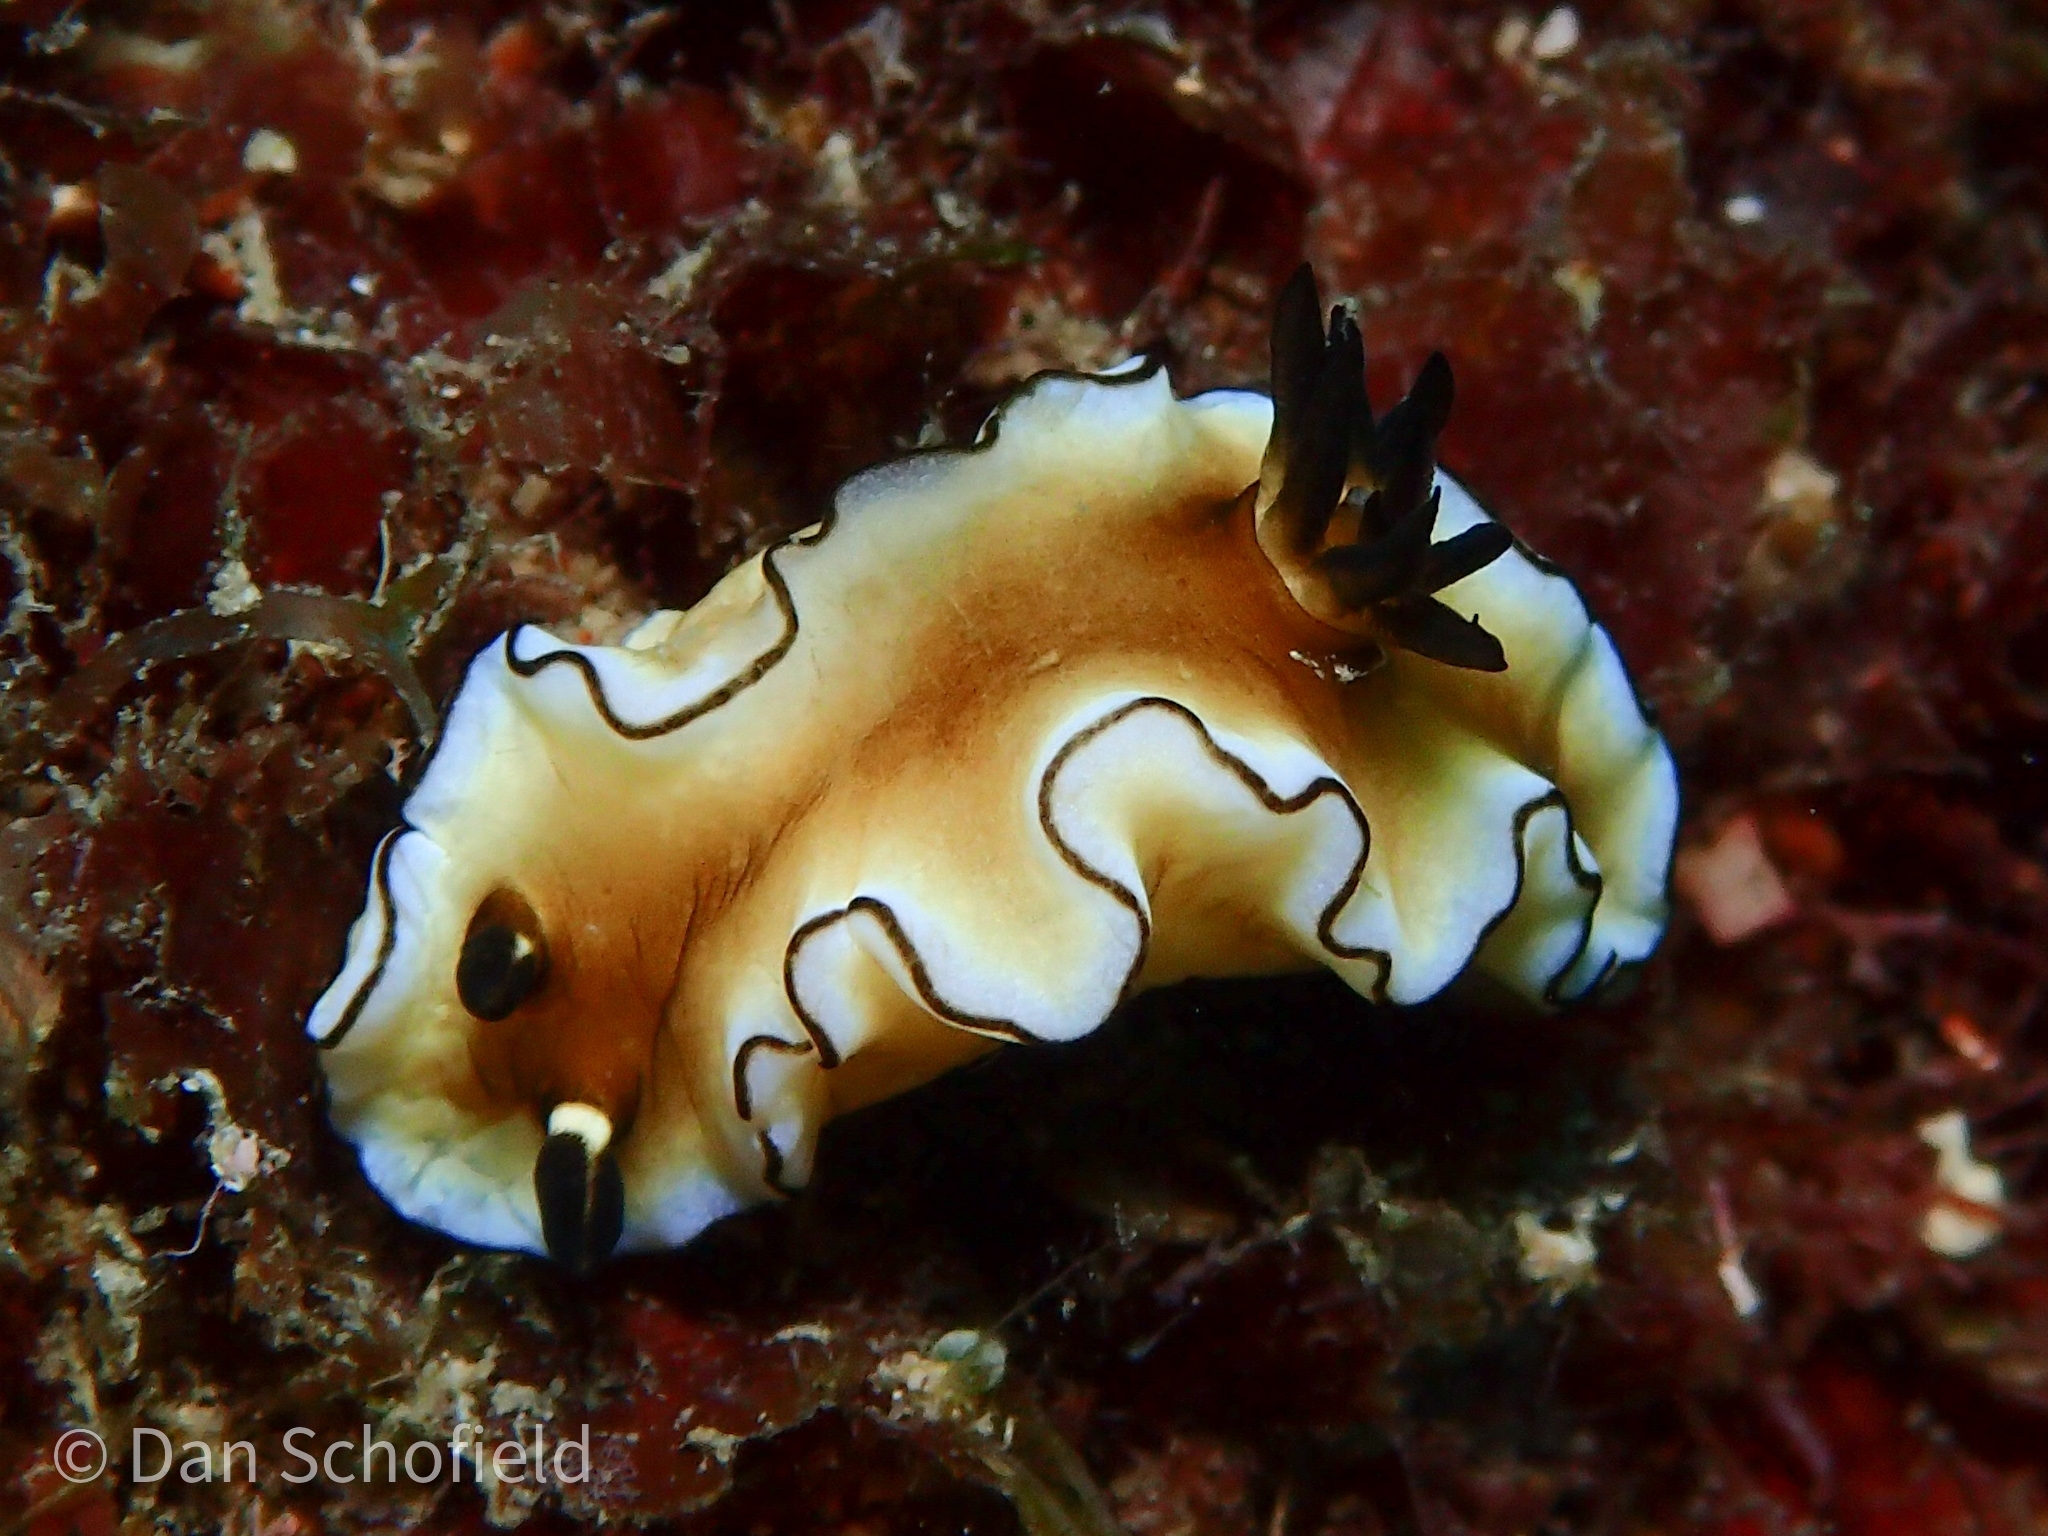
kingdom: Animalia
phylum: Mollusca
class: Gastropoda
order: Nudibranchia
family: Chromodorididae
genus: Doriprismatica
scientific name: Doriprismatica atromarginata
